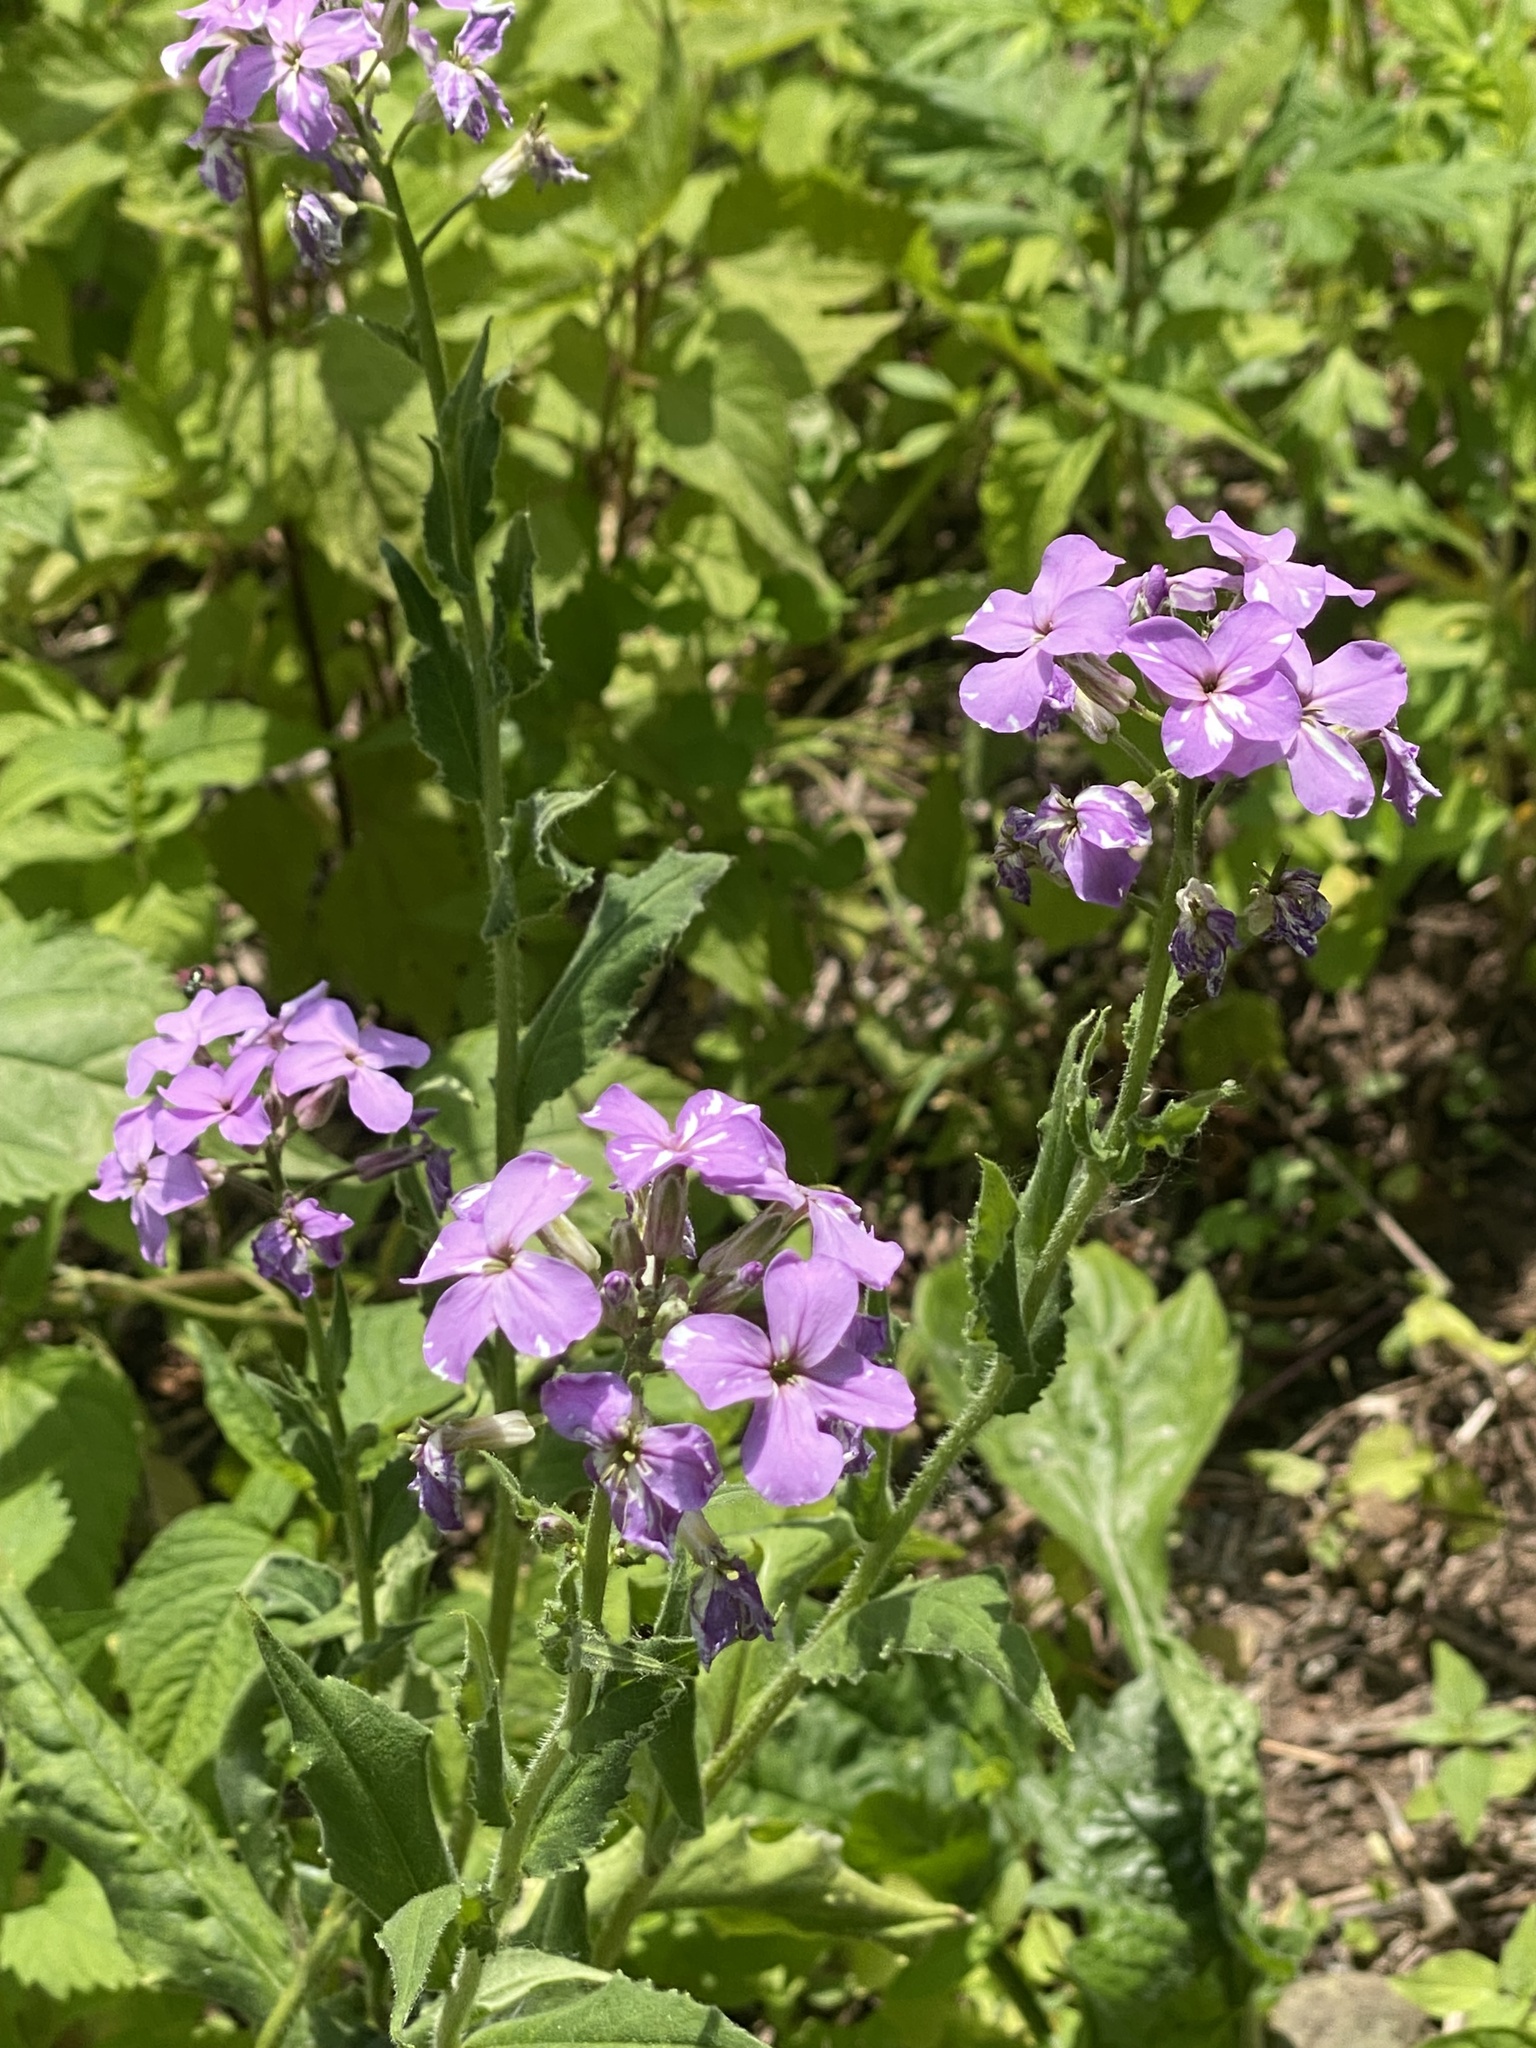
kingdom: Plantae
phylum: Tracheophyta
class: Magnoliopsida
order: Brassicales
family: Brassicaceae
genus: Hesperis
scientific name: Hesperis matronalis
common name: Dame's-violet
